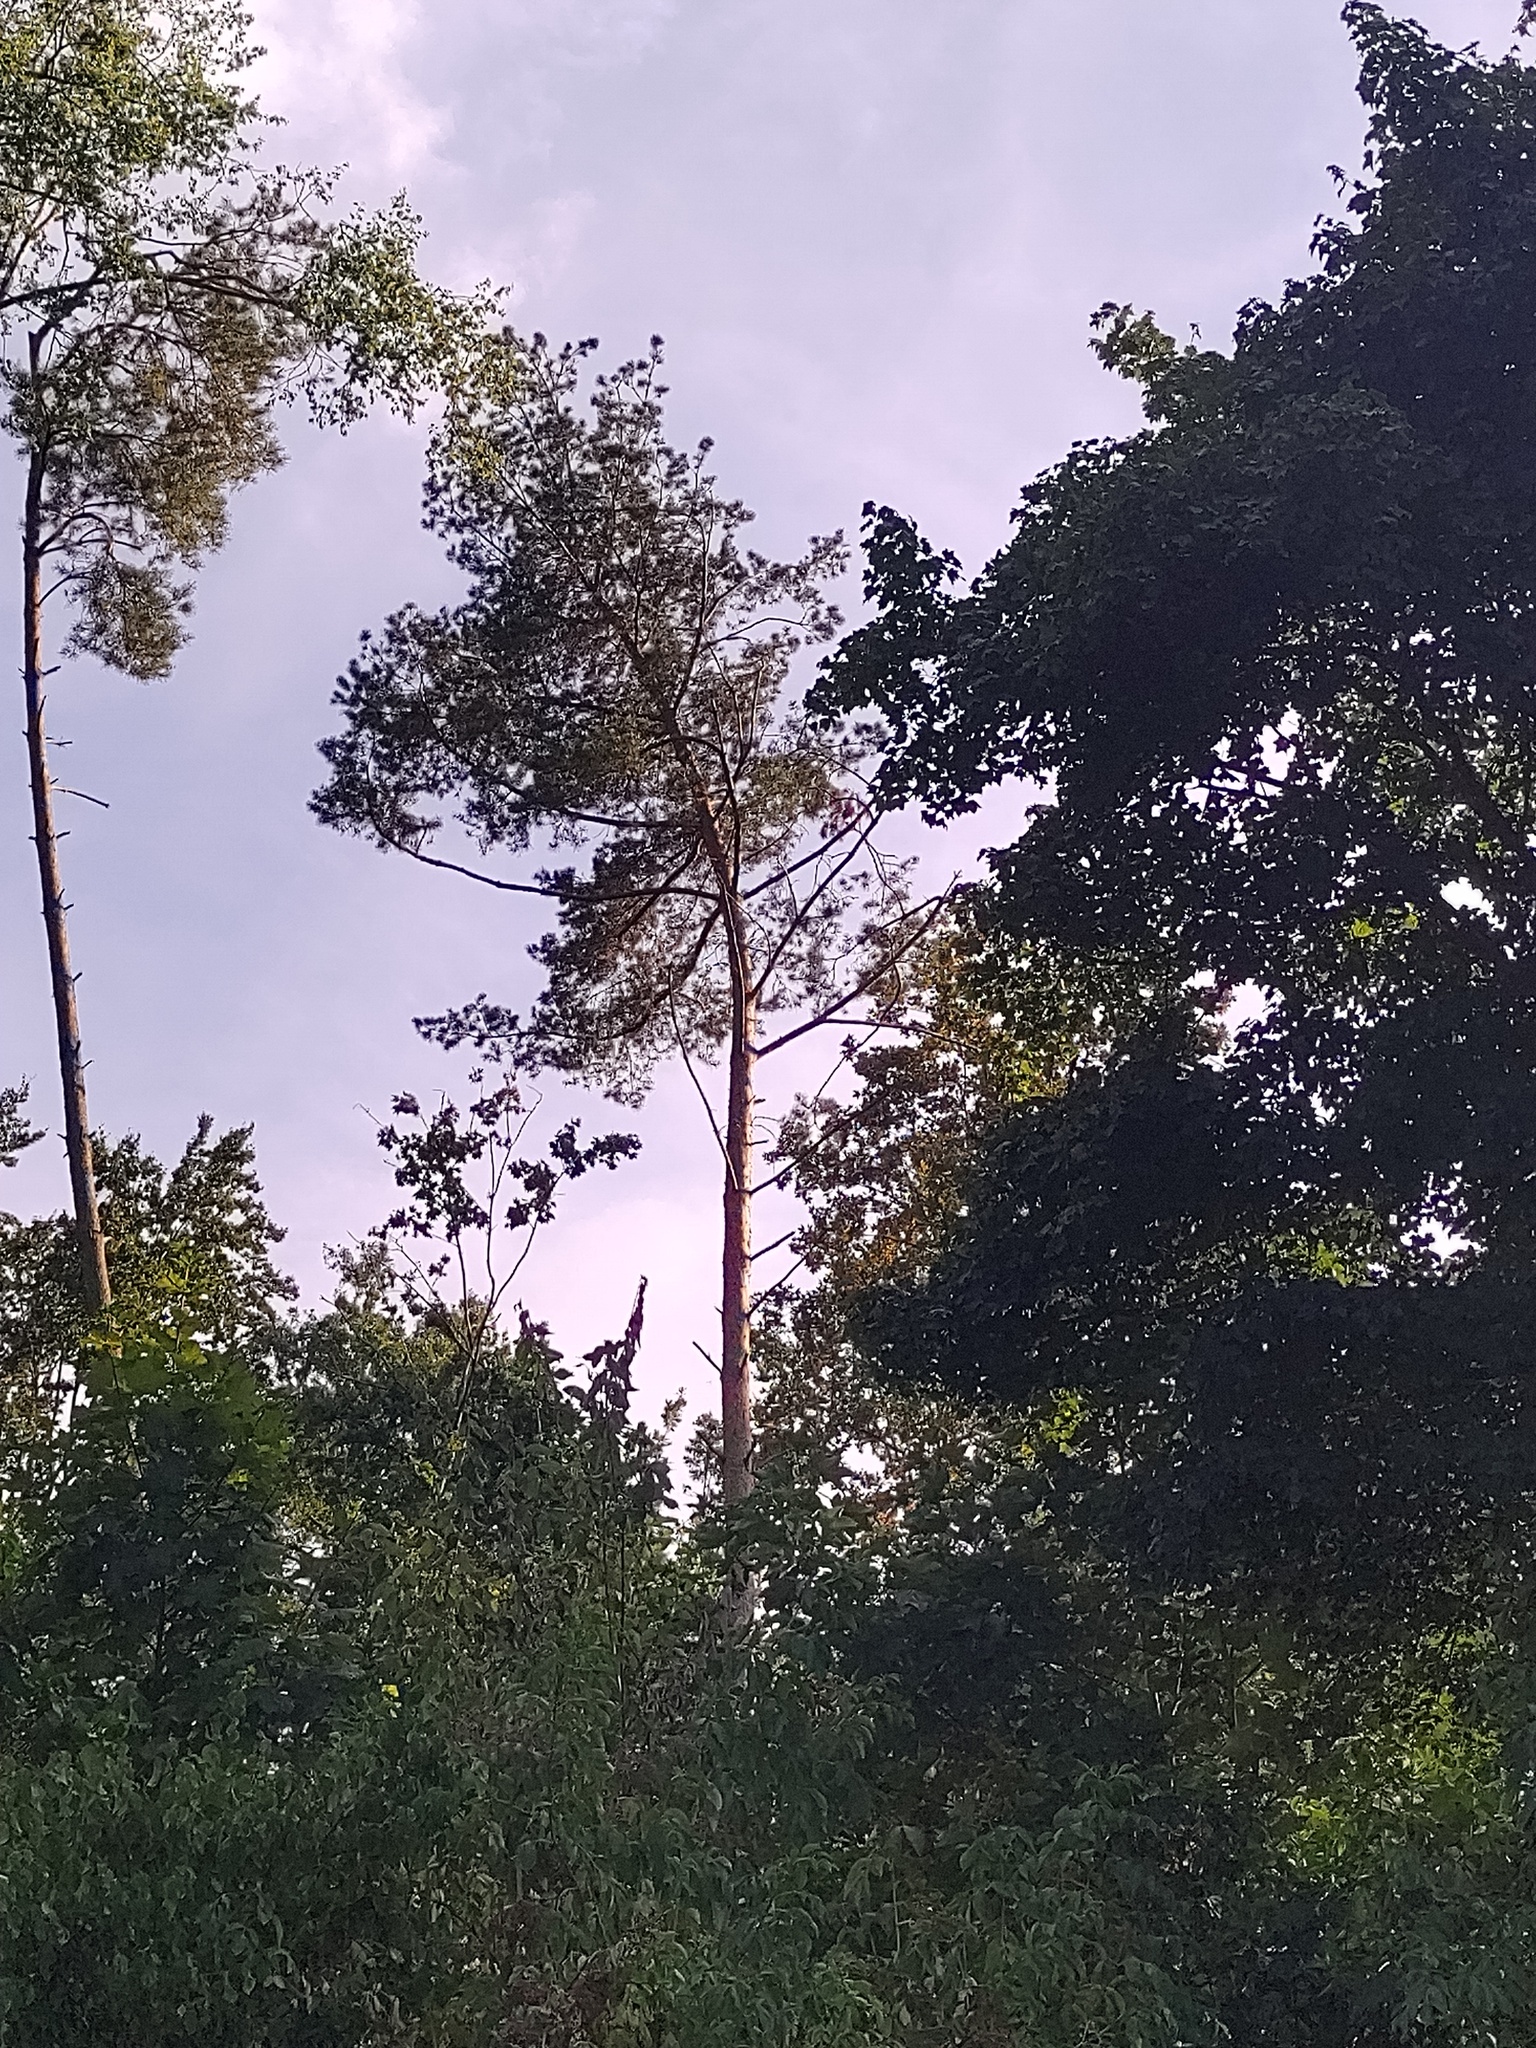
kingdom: Plantae
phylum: Tracheophyta
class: Pinopsida
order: Pinales
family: Pinaceae
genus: Pinus
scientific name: Pinus sylvestris
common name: Scots pine
